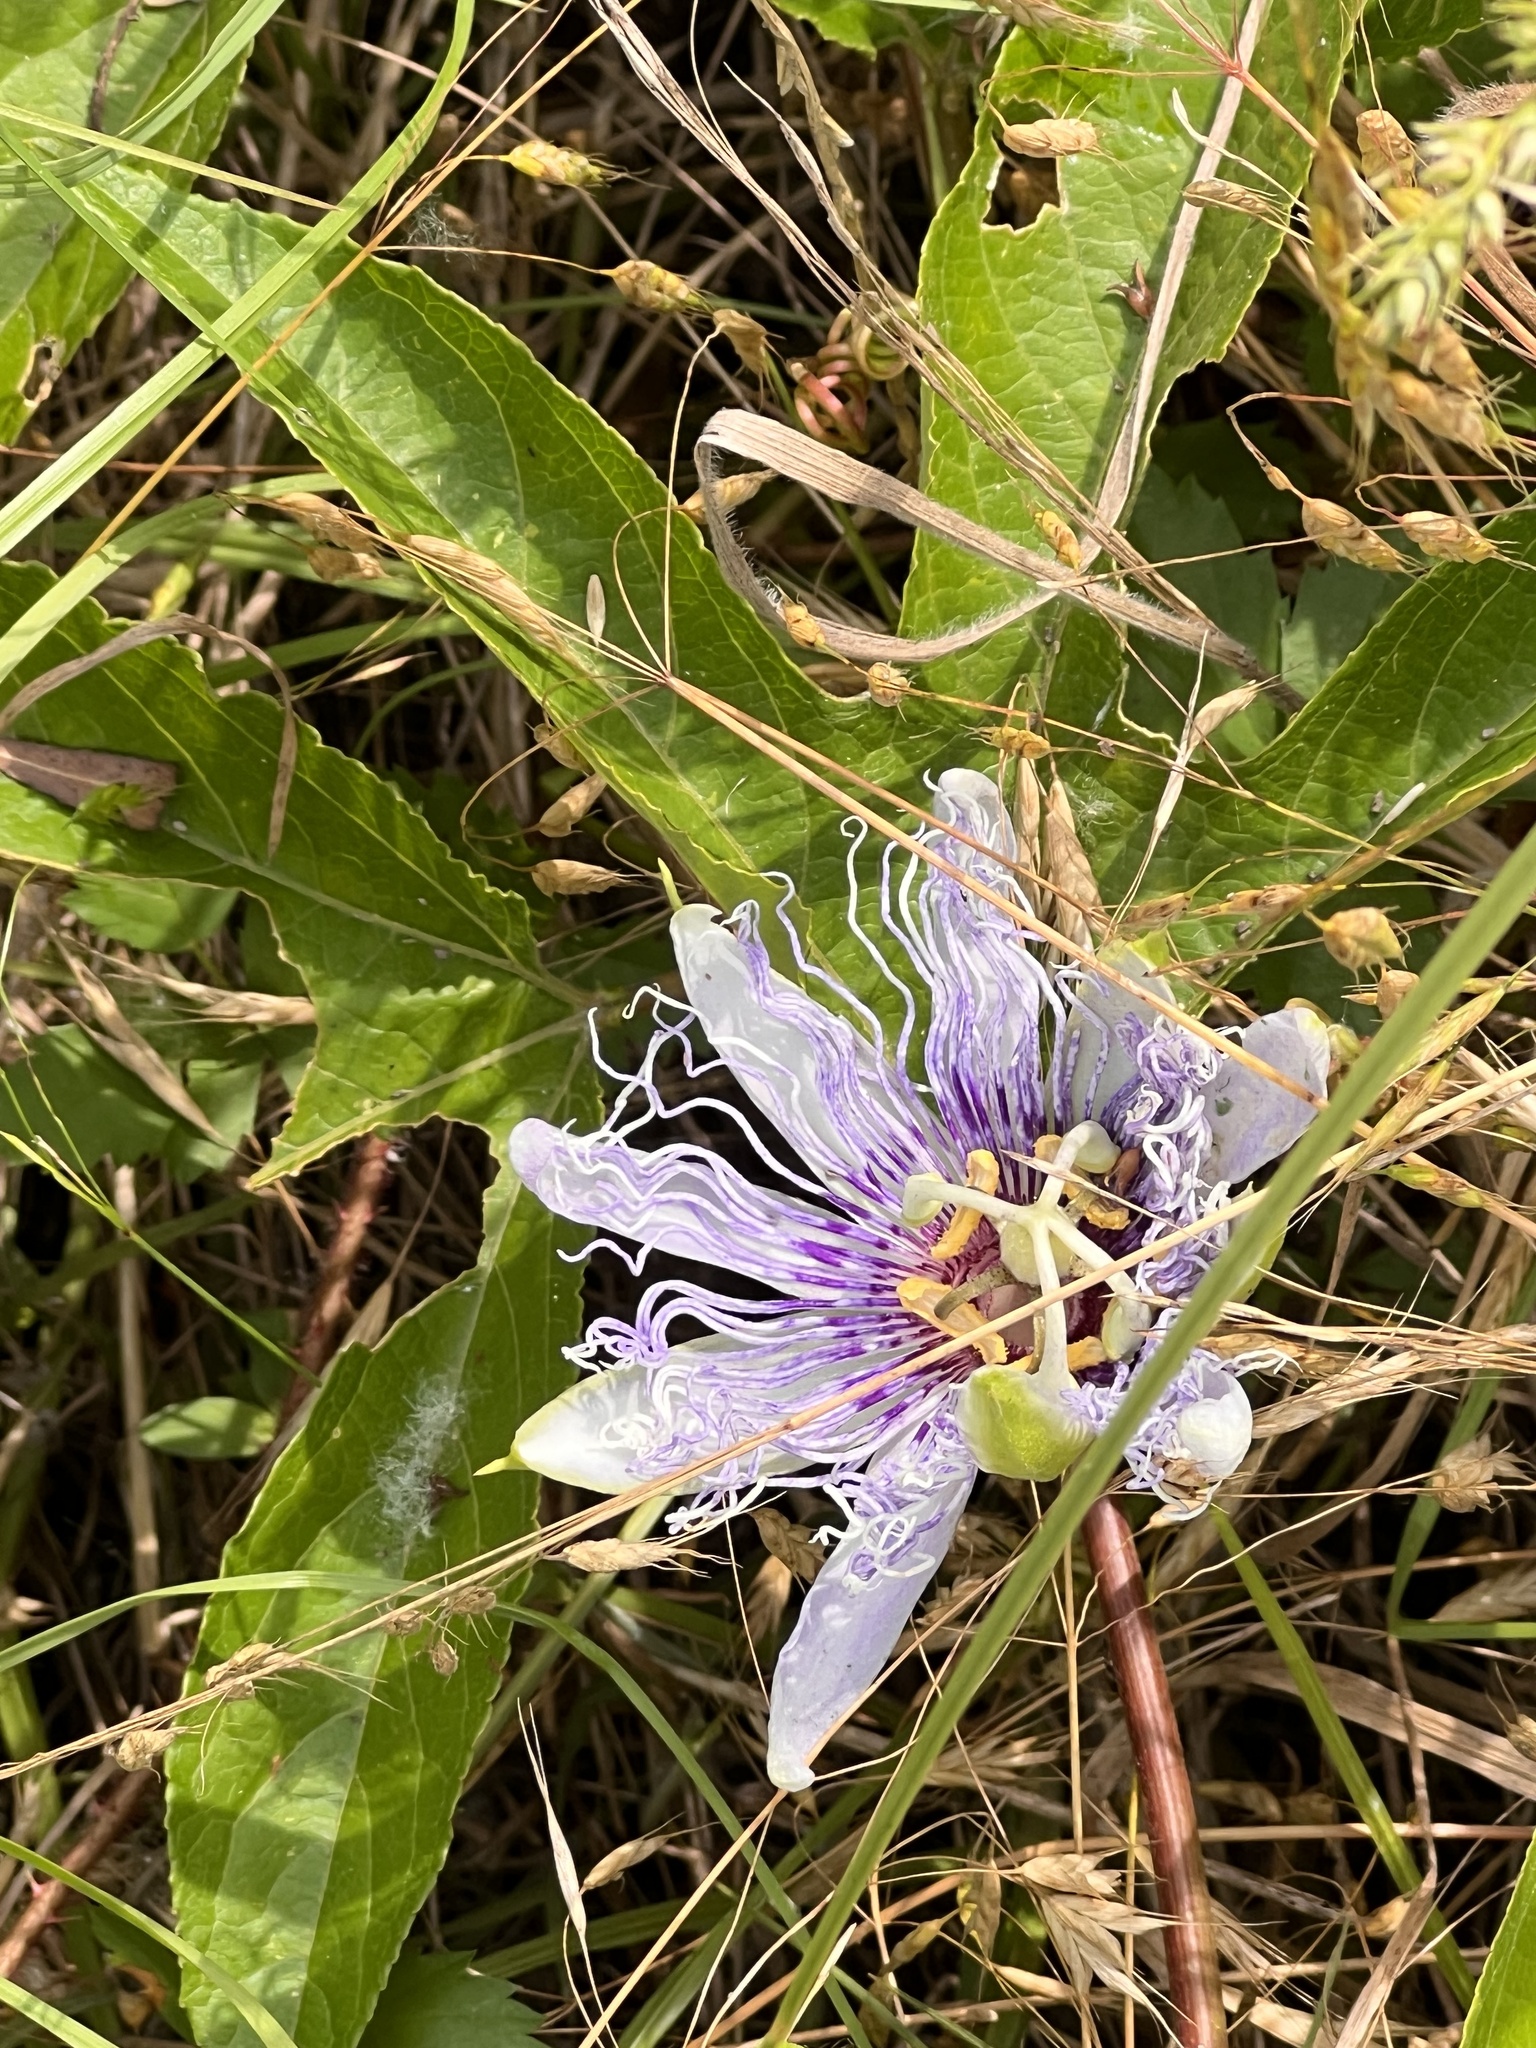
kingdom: Plantae
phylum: Tracheophyta
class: Magnoliopsida
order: Malpighiales
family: Passifloraceae
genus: Passiflora
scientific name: Passiflora incarnata
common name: Apricot-vine
